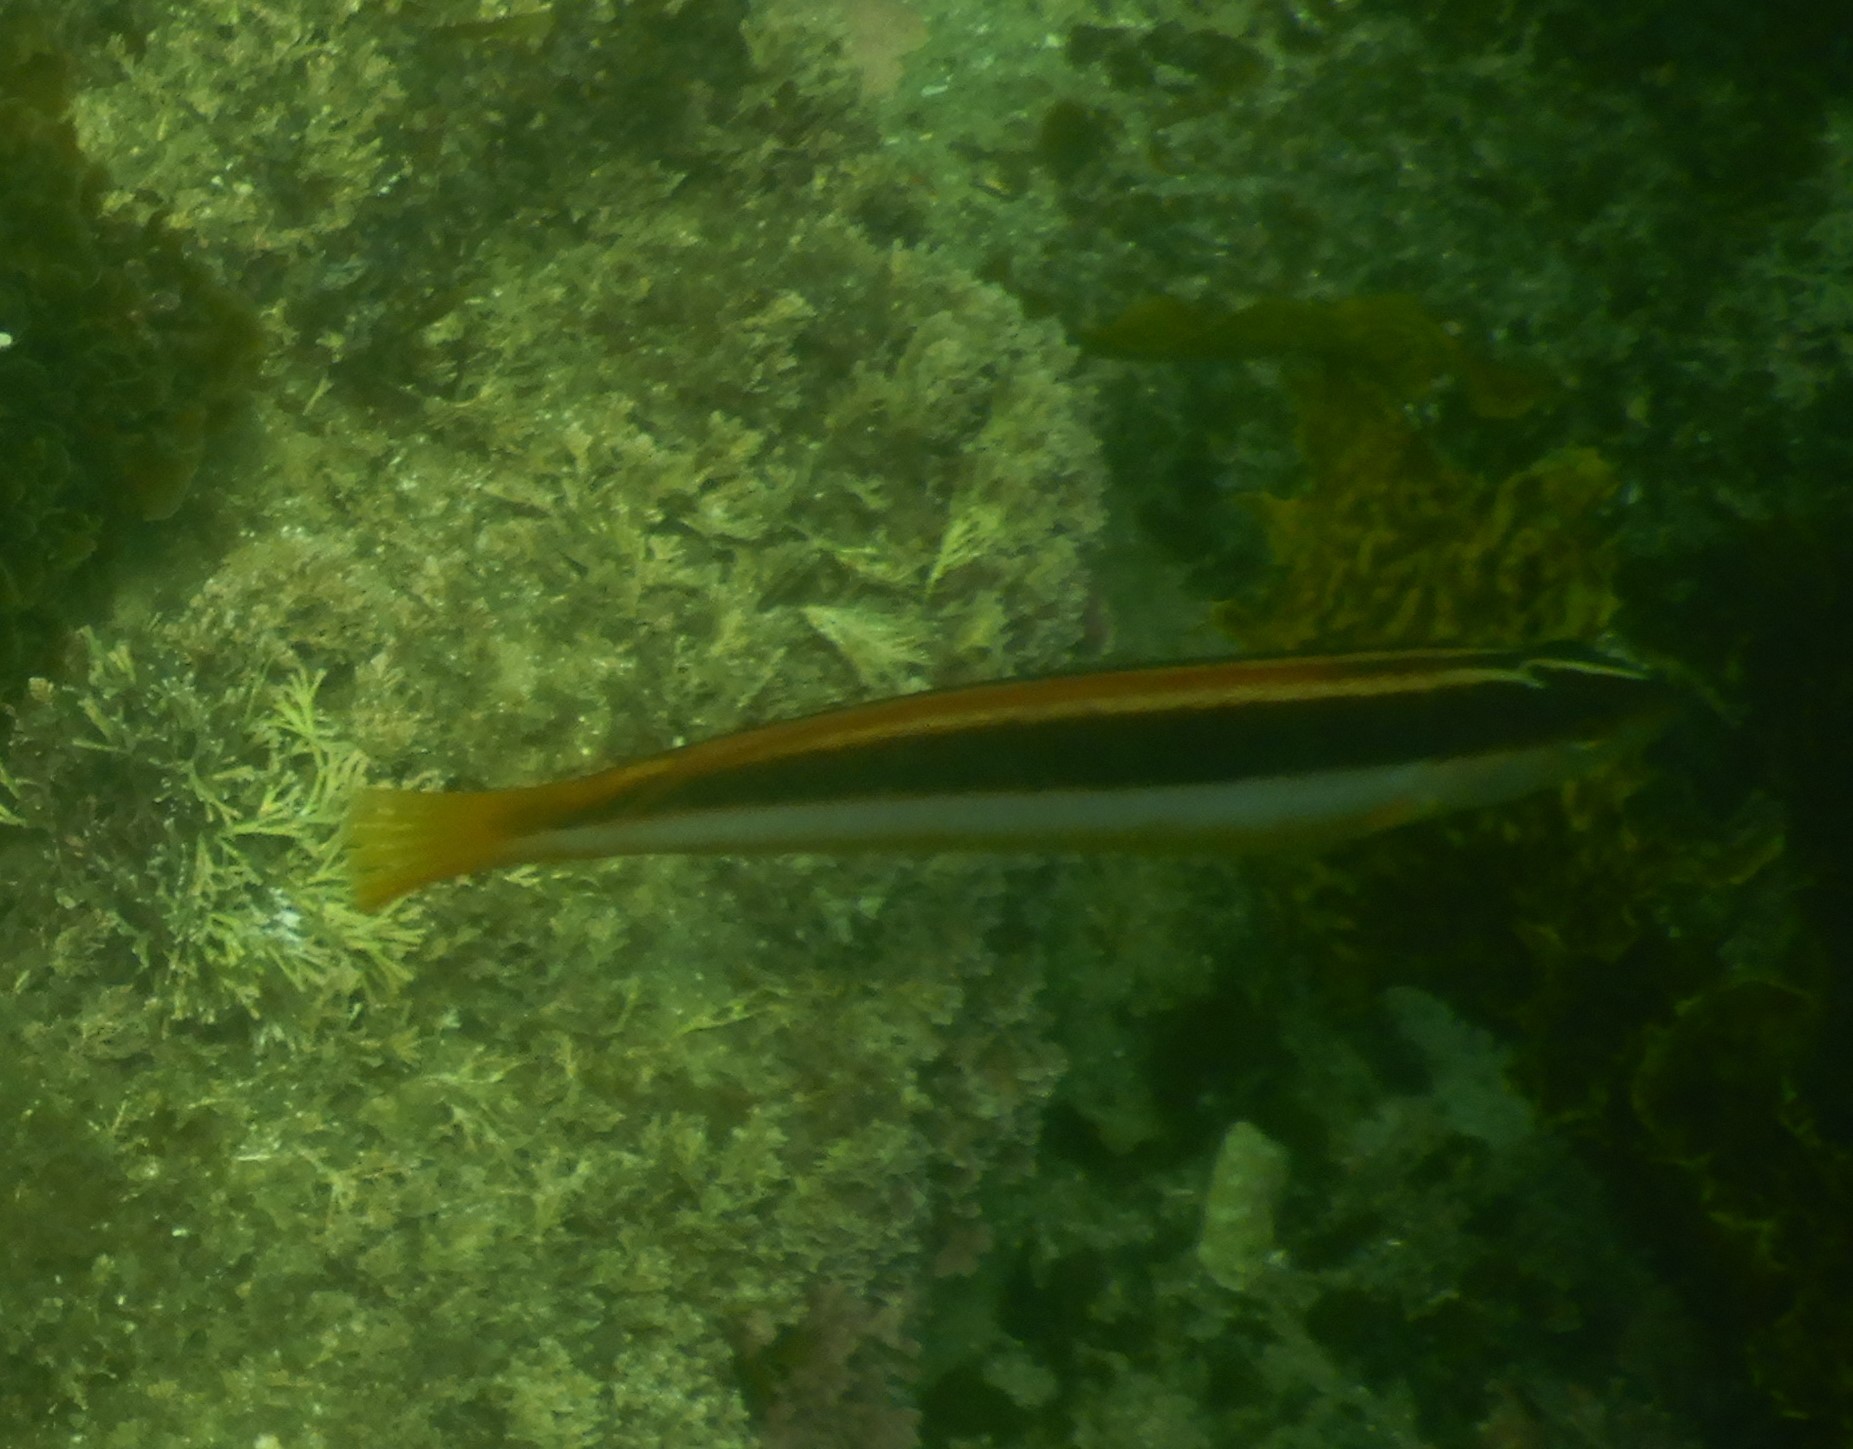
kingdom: Animalia
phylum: Chordata
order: Perciformes
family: Labridae
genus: Ophthalmolepis
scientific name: Ophthalmolepis lineolata
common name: Maori wrasse
